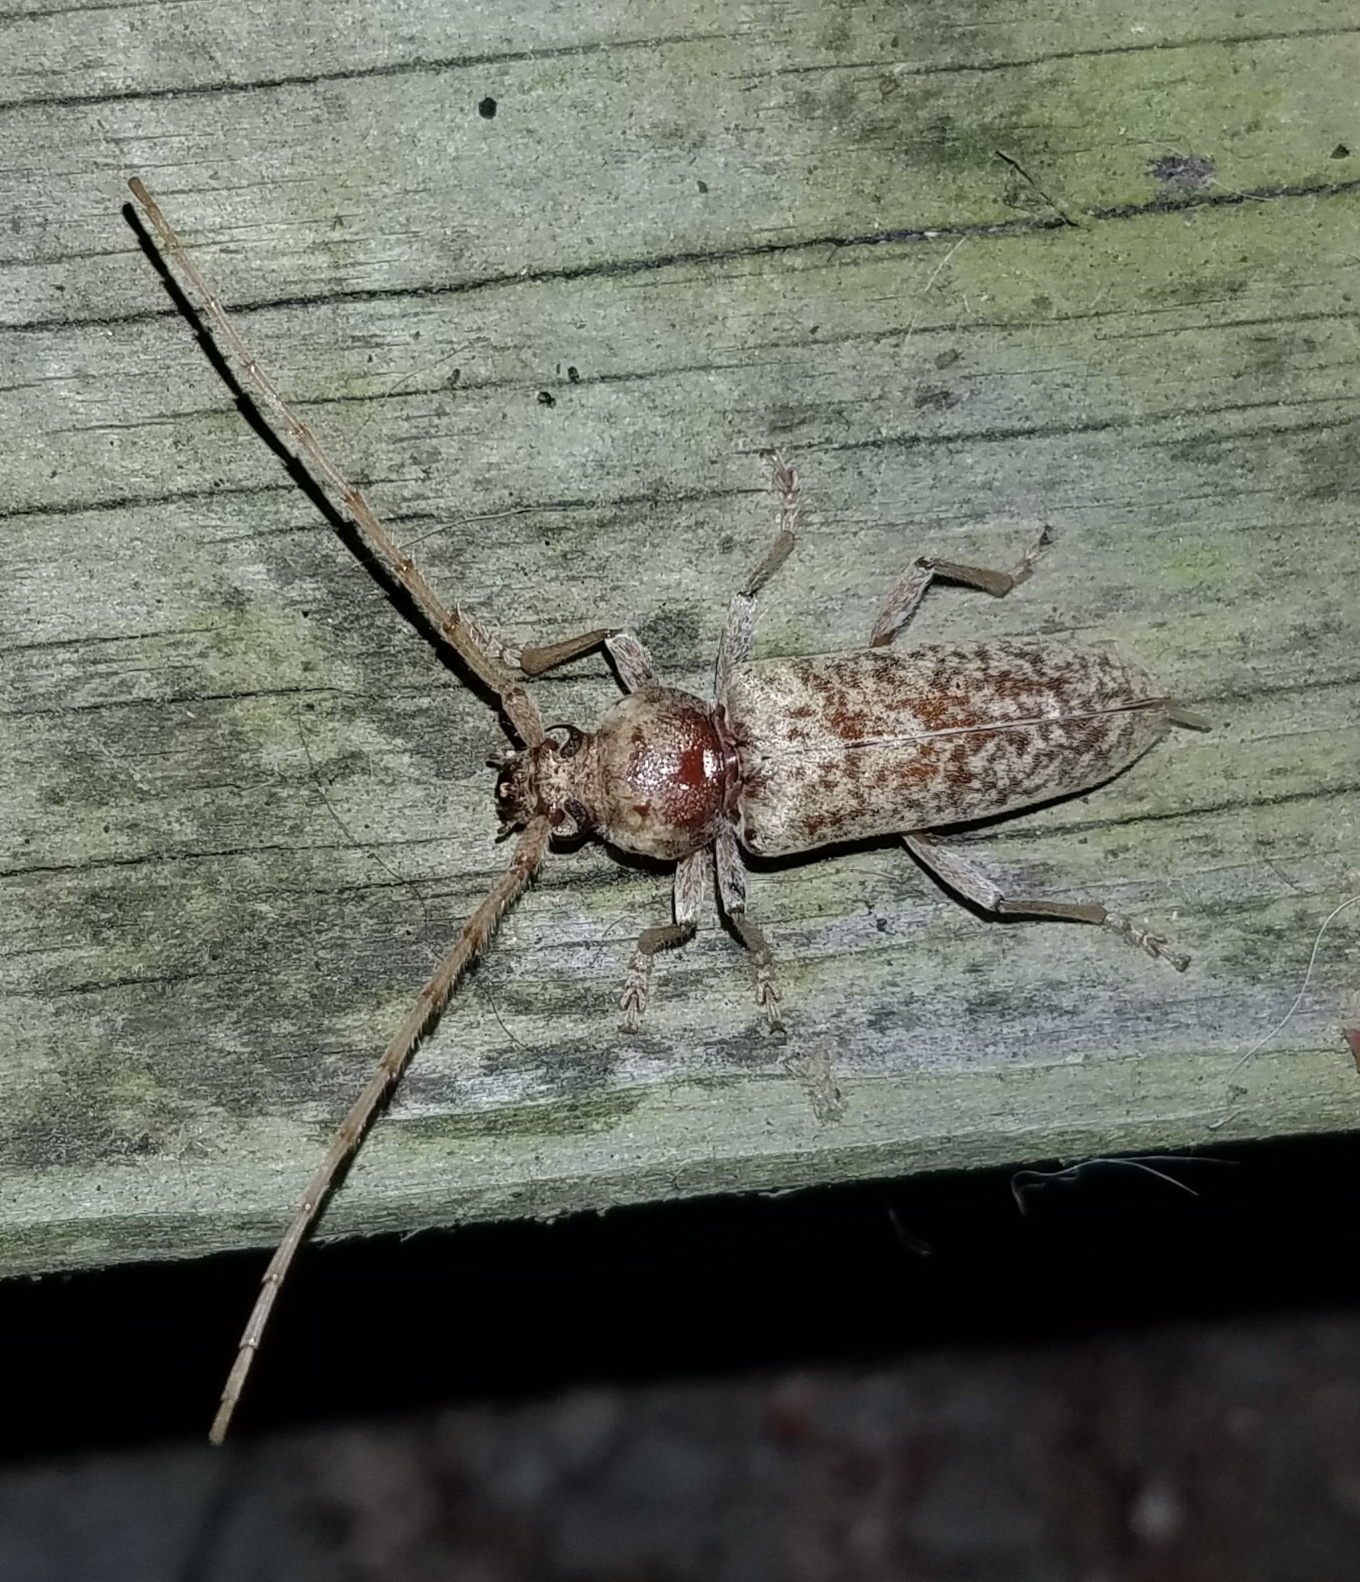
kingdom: Animalia
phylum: Arthropoda
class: Insecta
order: Coleoptera
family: Cerambycidae
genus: Enaphalodes
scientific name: Enaphalodes rufulus
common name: Red oak borer
